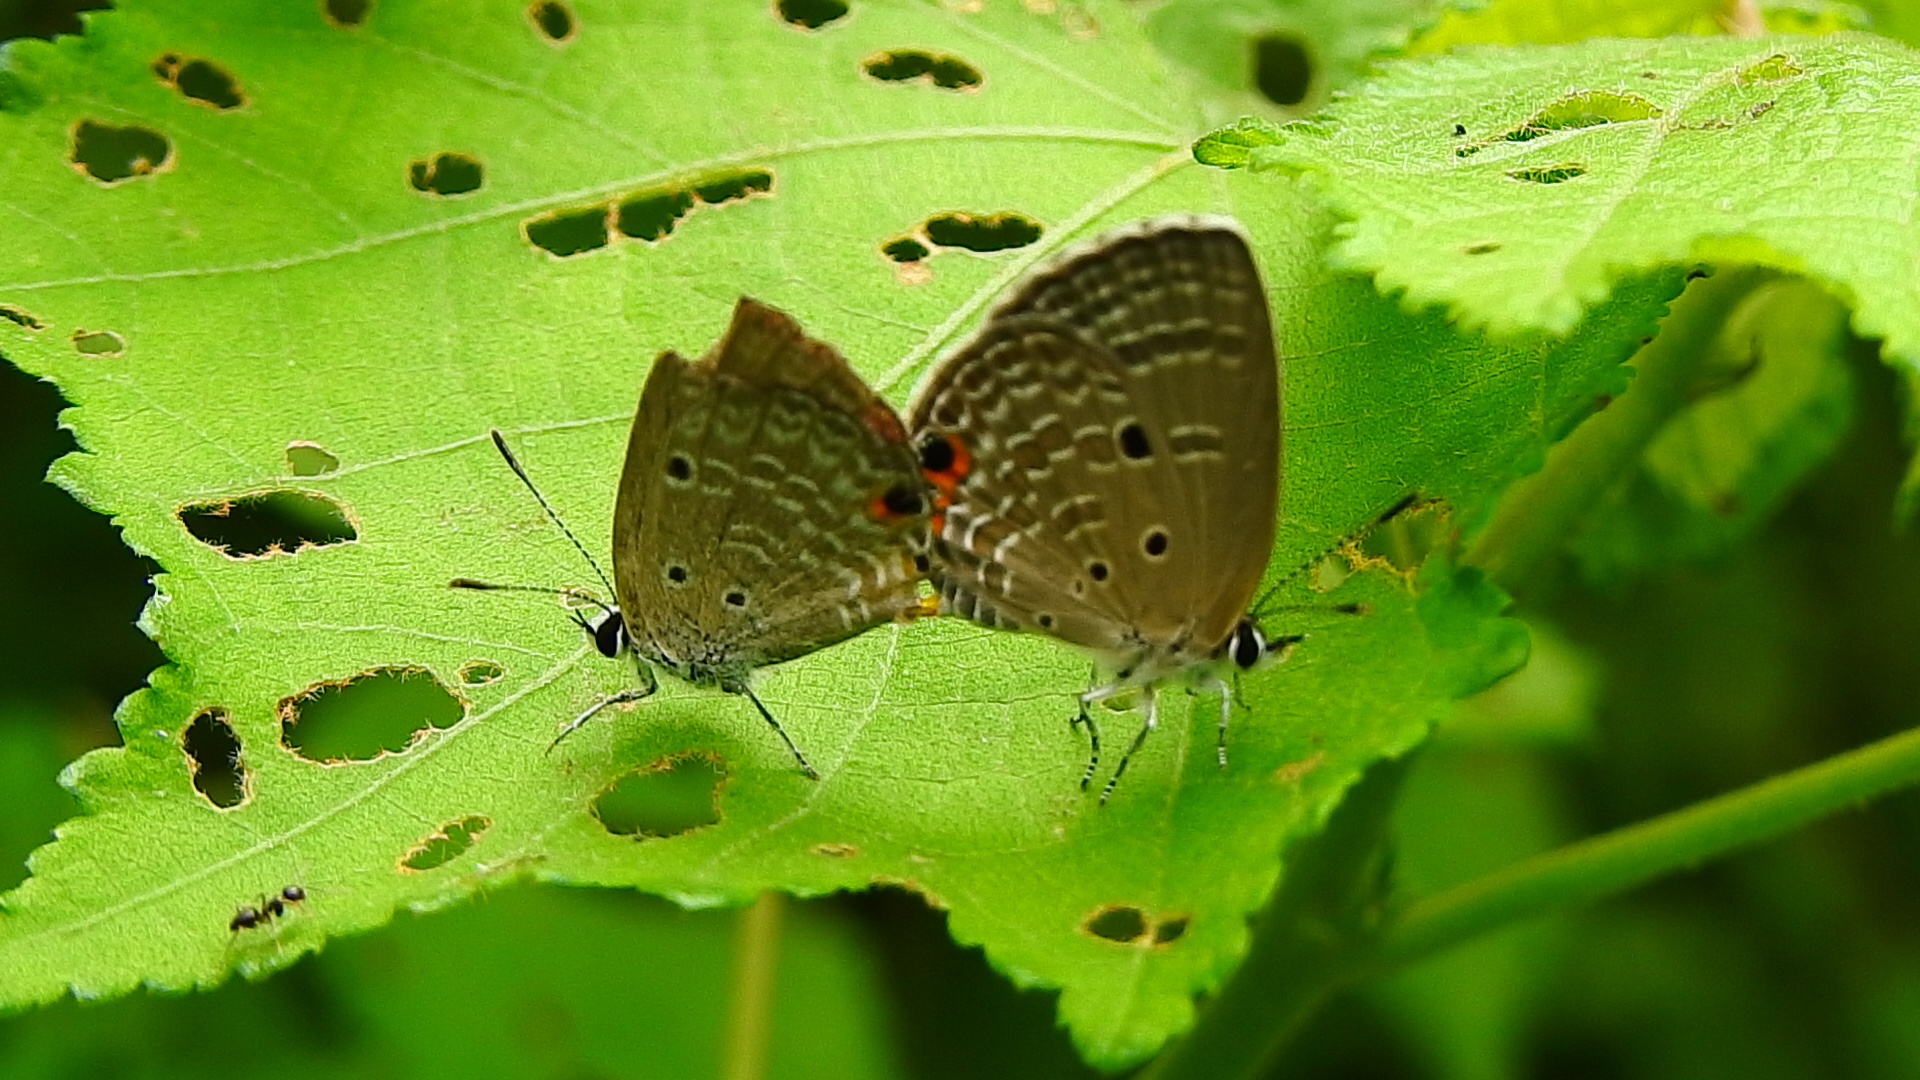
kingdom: Animalia
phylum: Arthropoda
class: Insecta
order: Lepidoptera
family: Lycaenidae
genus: Luthrodes
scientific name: Luthrodes pandava
